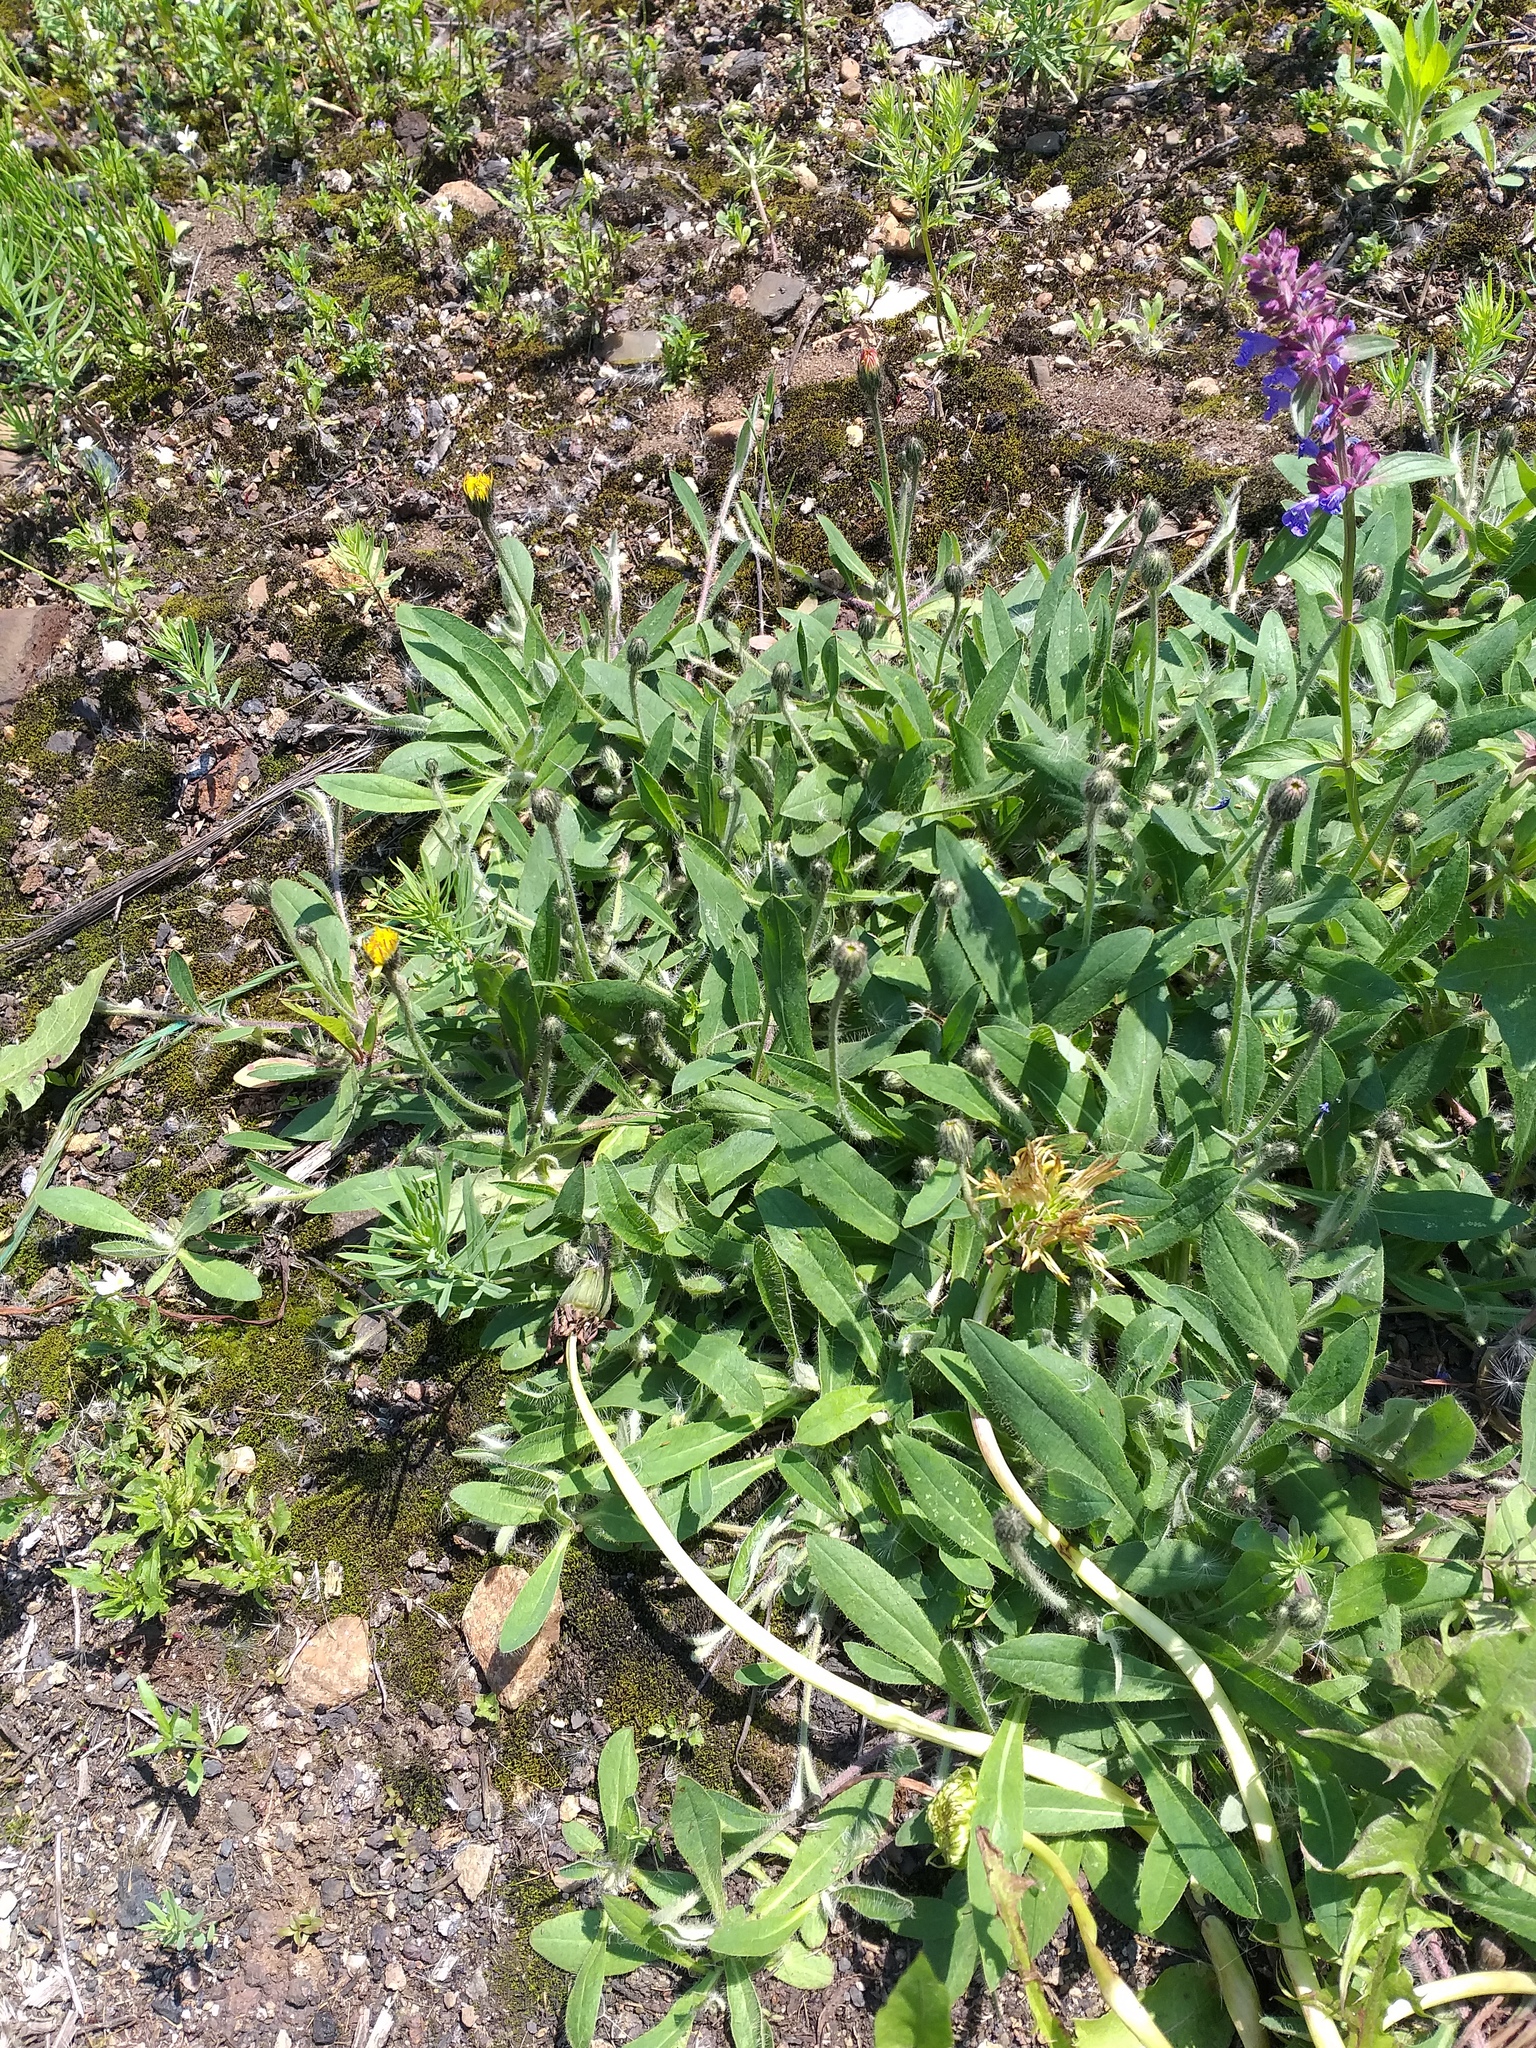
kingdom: Plantae
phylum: Tracheophyta
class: Magnoliopsida
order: Asterales
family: Asteraceae
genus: Pilosella
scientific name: Pilosella officinarum
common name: Mouse-ear hawkweed
